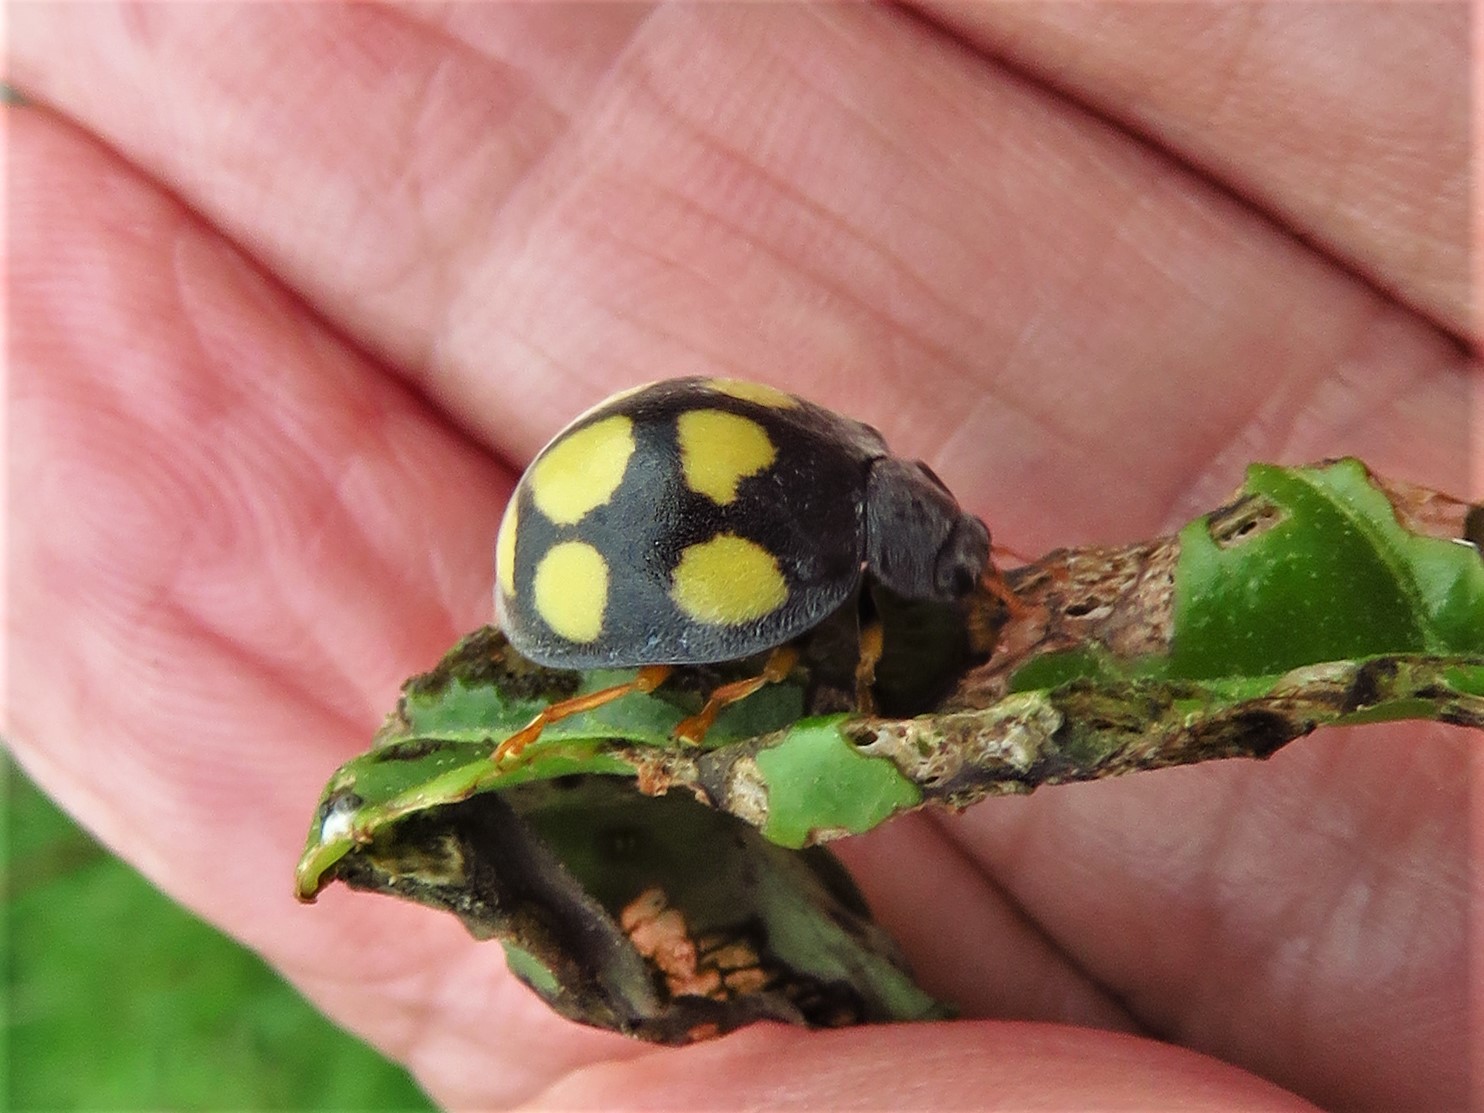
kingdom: Animalia
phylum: Arthropoda
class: Insecta
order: Coleoptera
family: Coccinellidae
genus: Epilachna
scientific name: Epilachna
